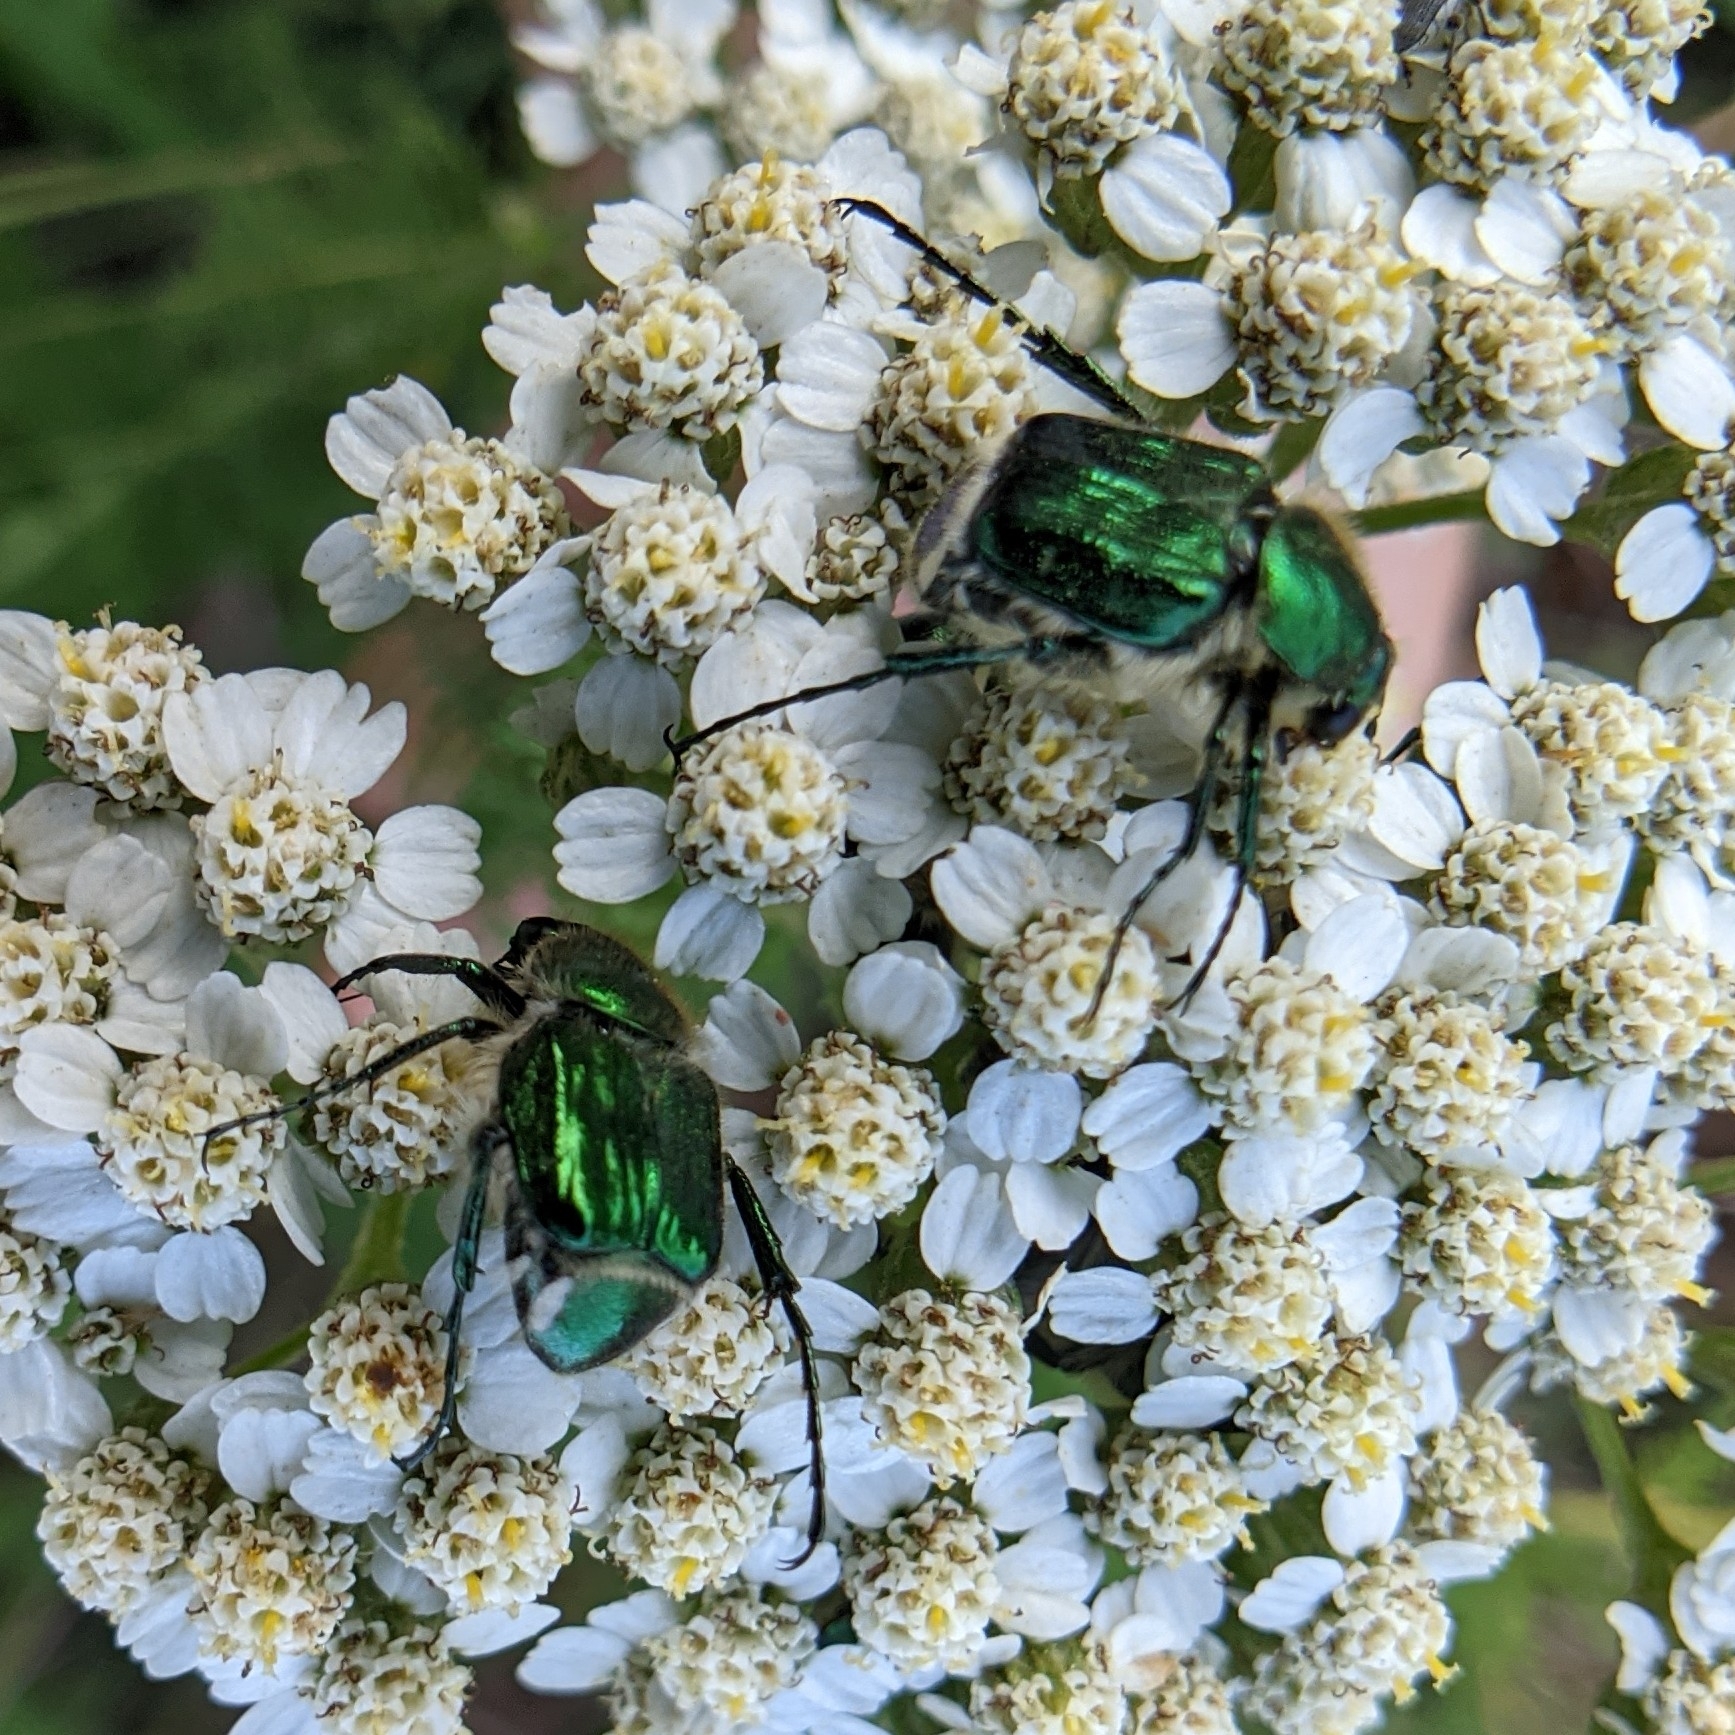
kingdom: Animalia
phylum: Arthropoda
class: Insecta
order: Coleoptera
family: Scarabaeidae
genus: Trichiotinus
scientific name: Trichiotinus lunulatus
